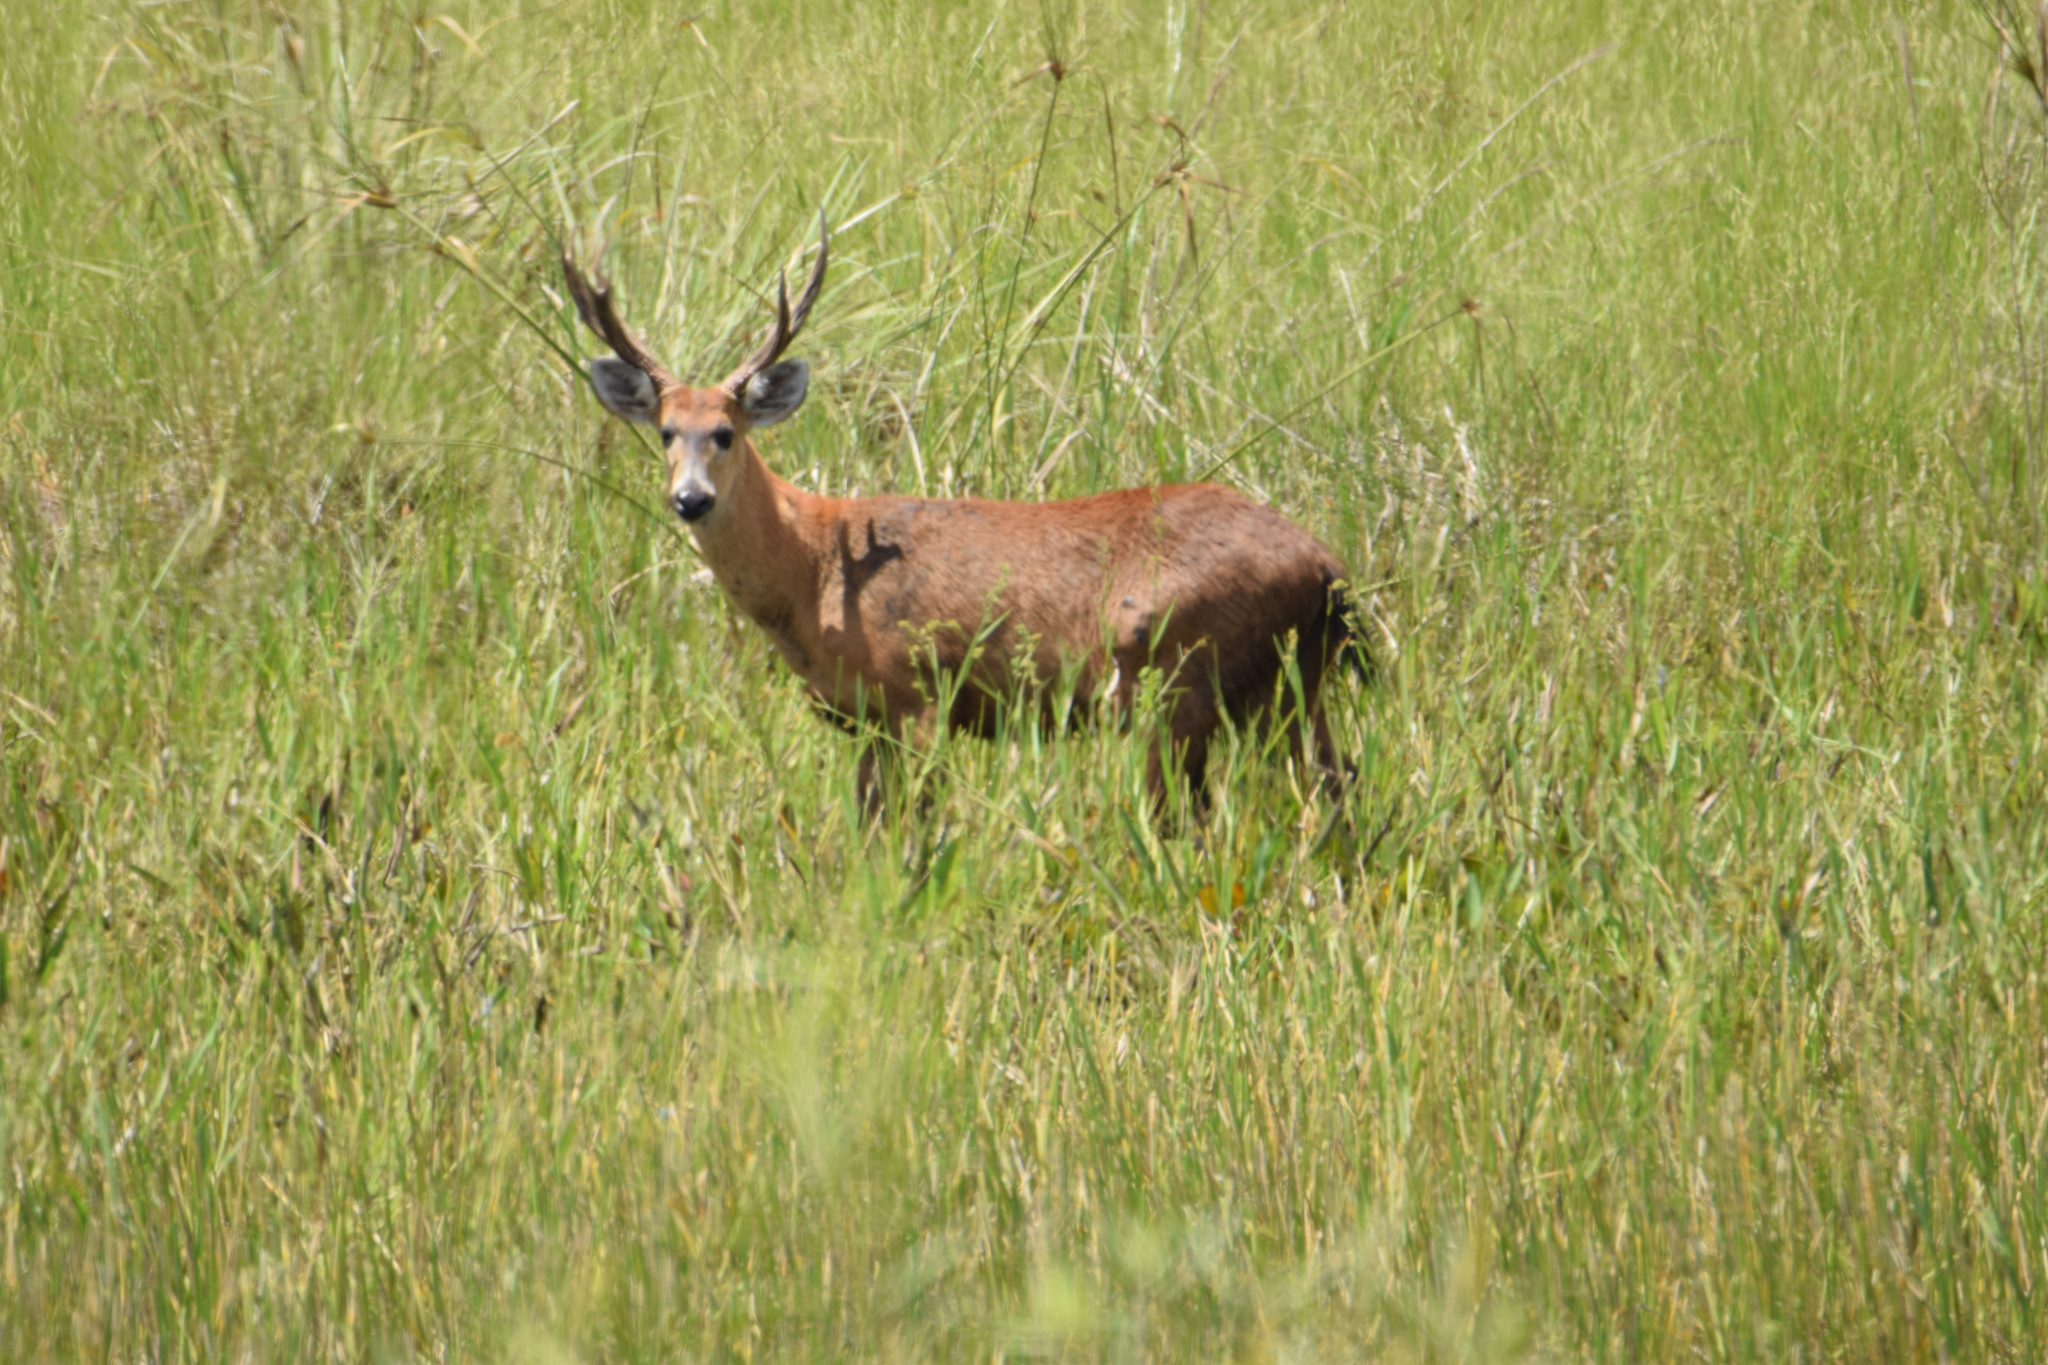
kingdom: Animalia
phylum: Chordata
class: Mammalia
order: Artiodactyla
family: Cervidae
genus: Blastocerus
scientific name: Blastocerus dichotomus
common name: Marsh deer
